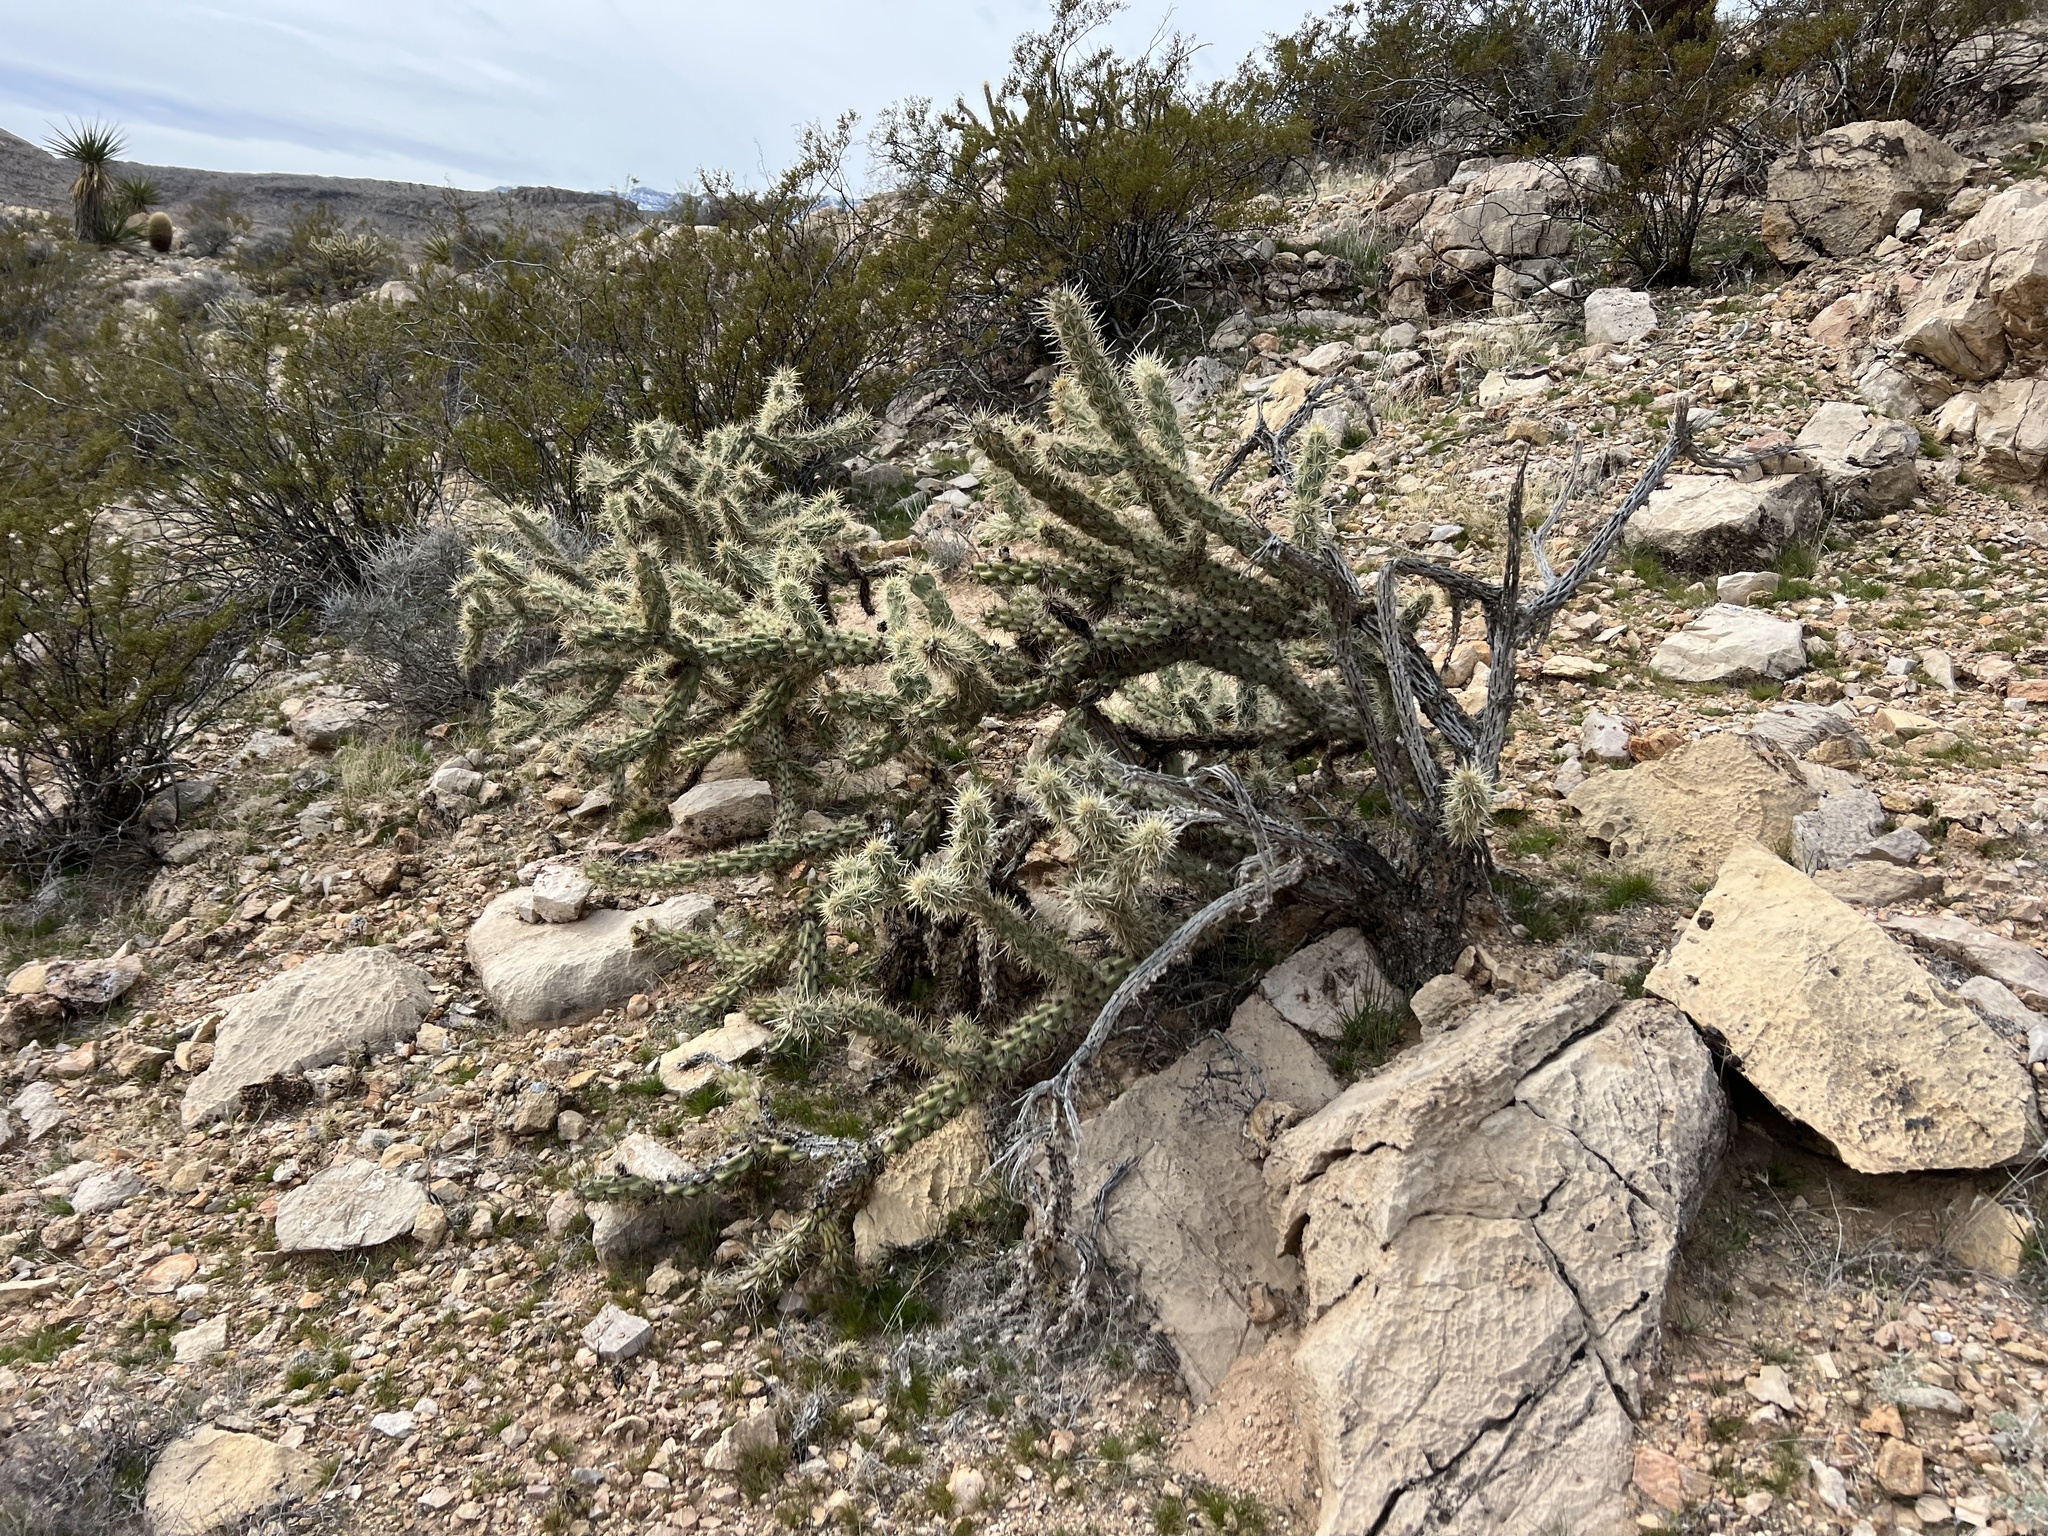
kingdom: Plantae
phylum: Tracheophyta
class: Magnoliopsida
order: Caryophyllales
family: Cactaceae
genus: Cylindropuntia
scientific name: Cylindropuntia acanthocarpa
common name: Buckhorn cholla
